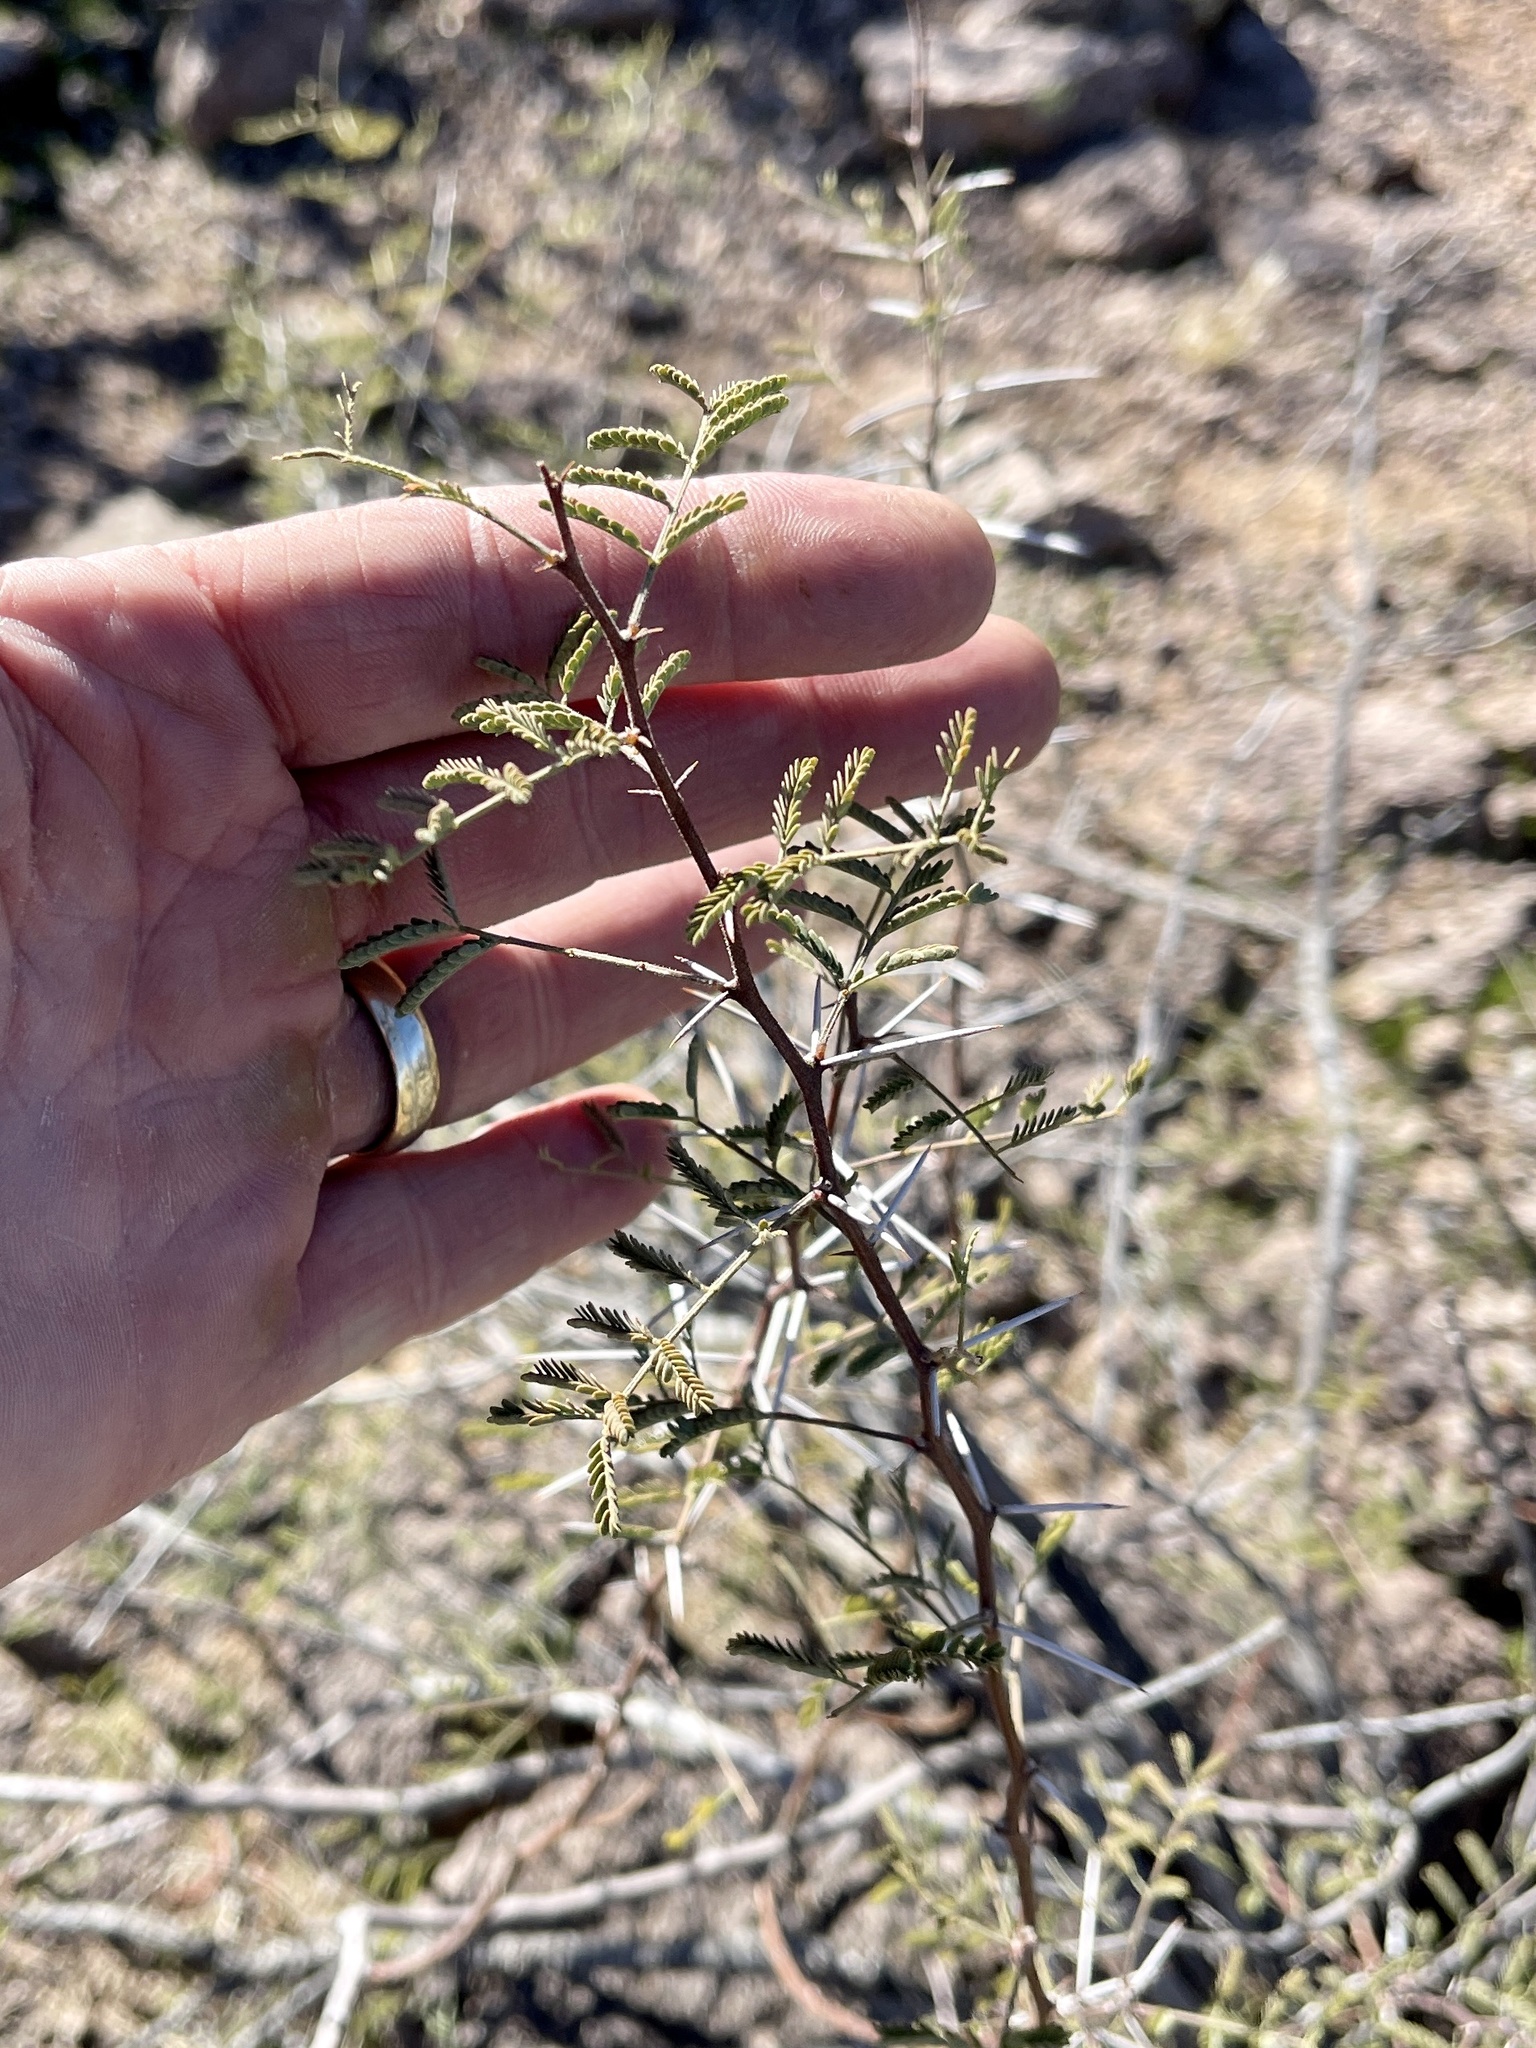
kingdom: Plantae
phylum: Tracheophyta
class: Magnoliopsida
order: Fabales
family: Fabaceae
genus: Vachellia
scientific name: Vachellia constricta
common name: Mescat acacia
